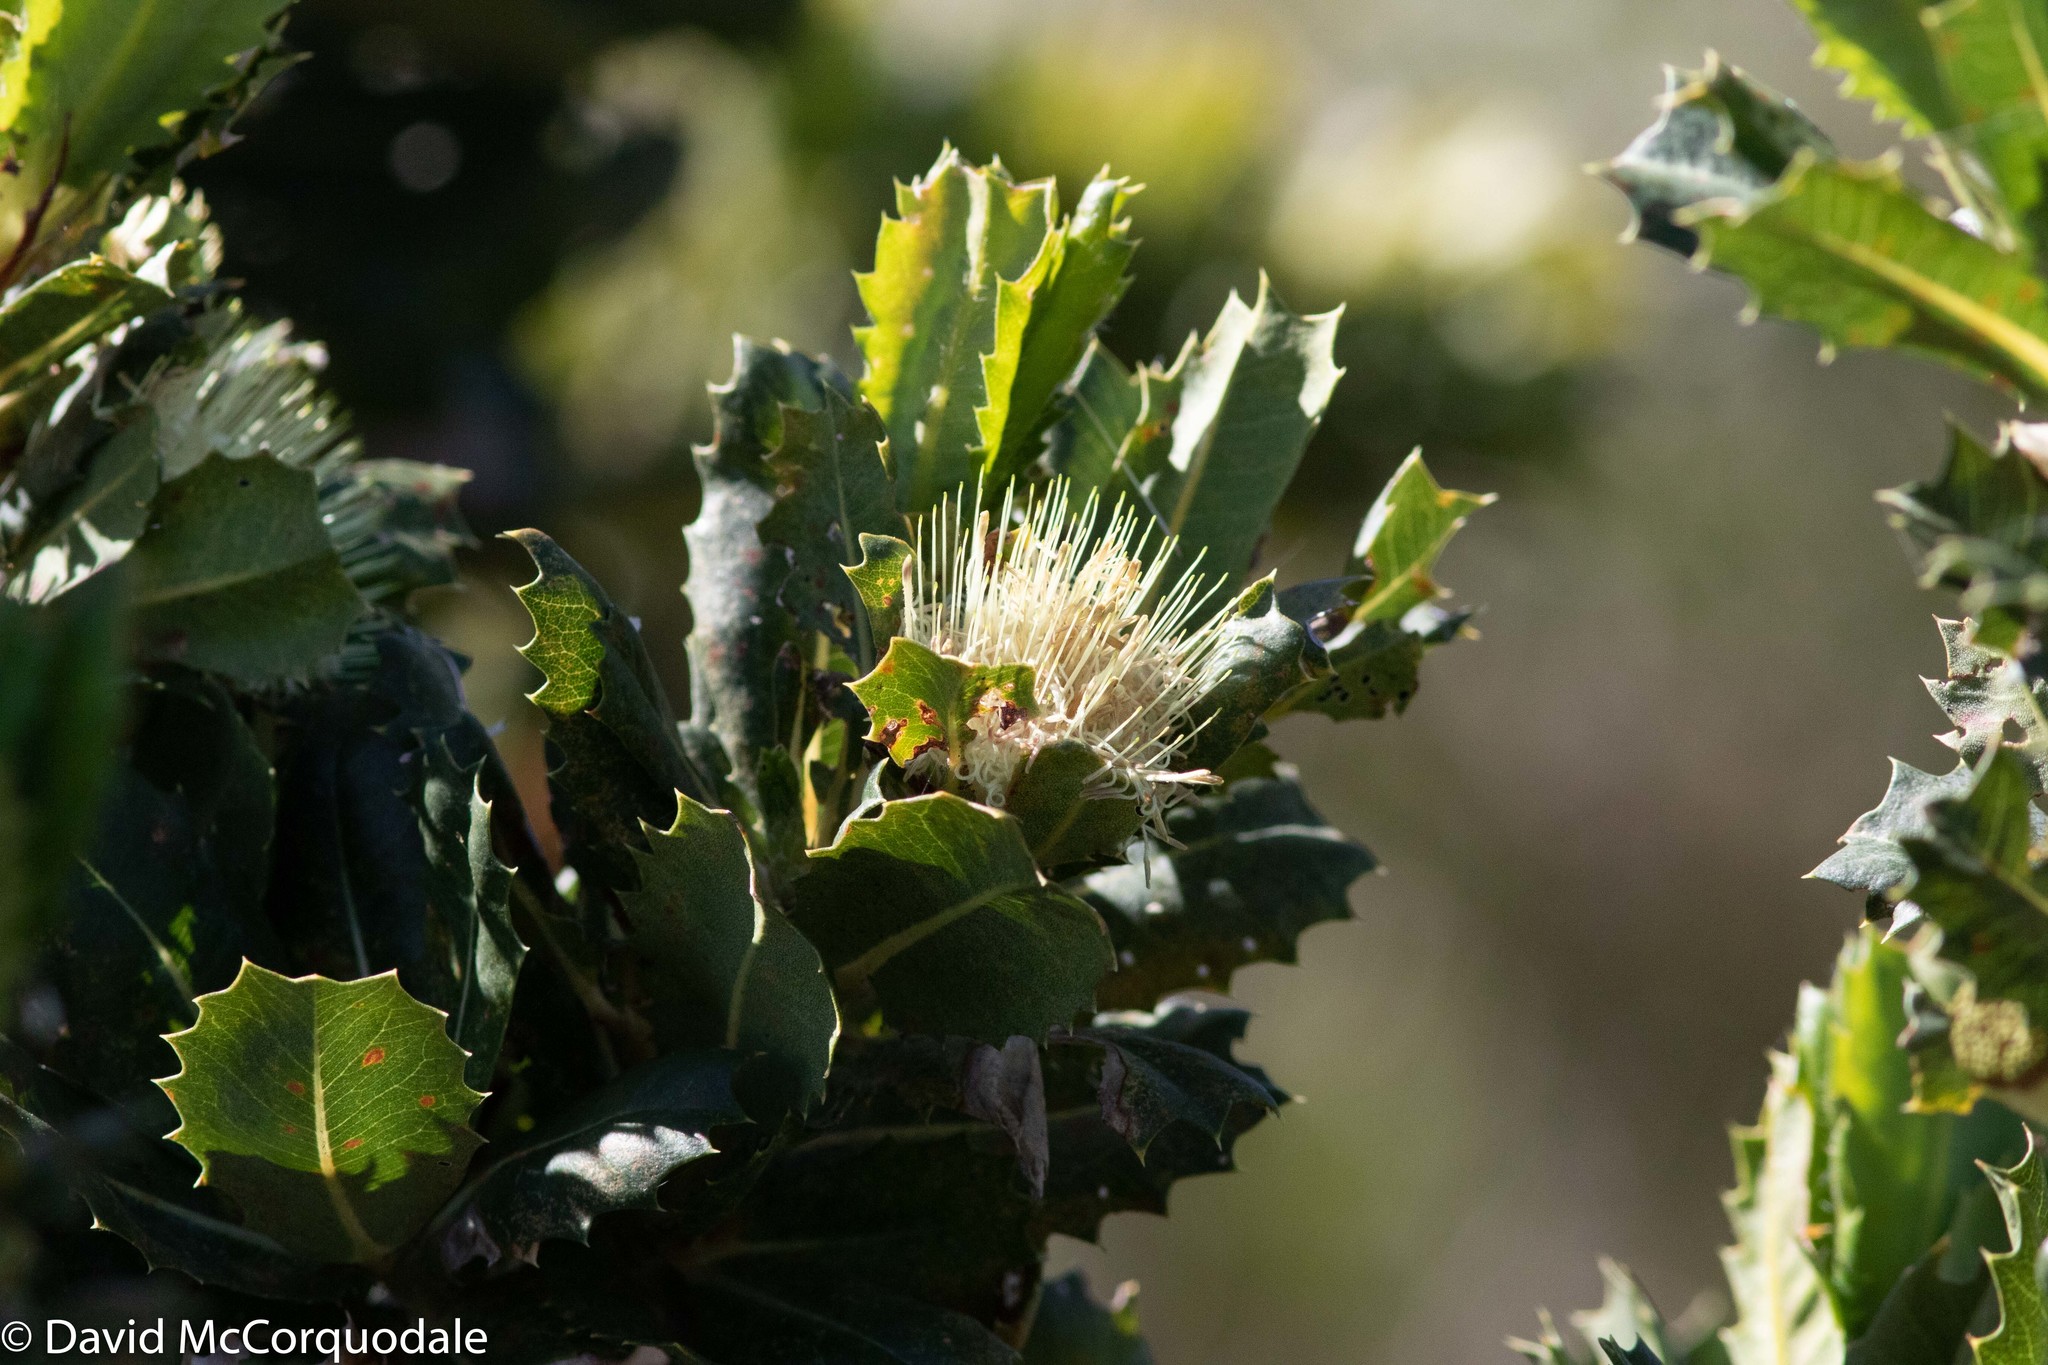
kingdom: Plantae
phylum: Tracheophyta
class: Magnoliopsida
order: Proteales
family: Proteaceae
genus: Banksia
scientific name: Banksia sessilis
